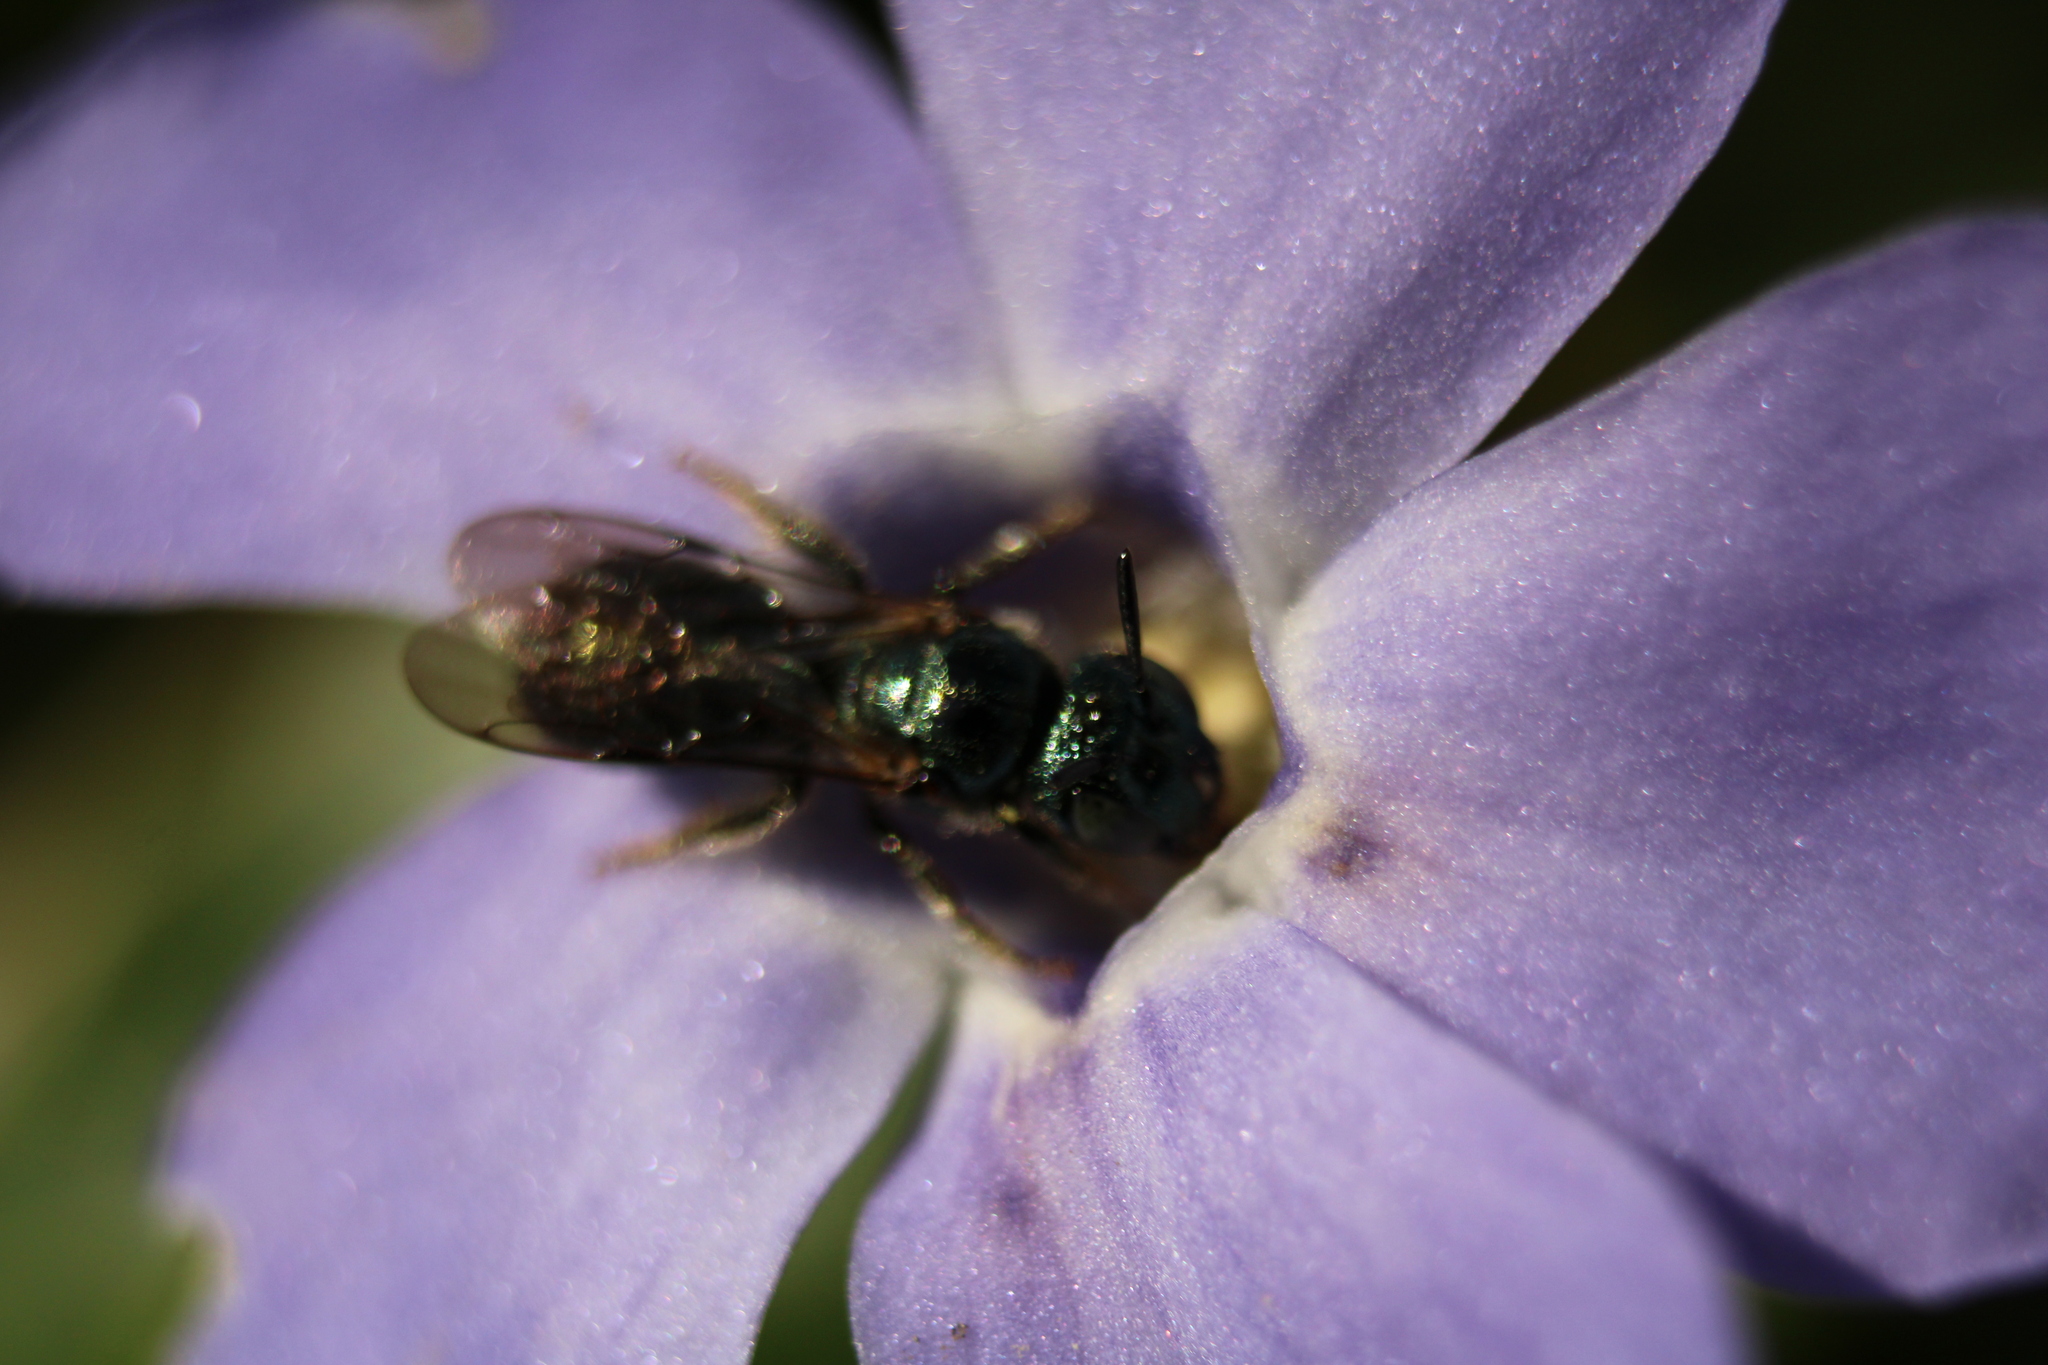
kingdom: Animalia
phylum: Arthropoda
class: Insecta
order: Hymenoptera
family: Apidae
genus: Zadontomerus
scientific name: Zadontomerus
